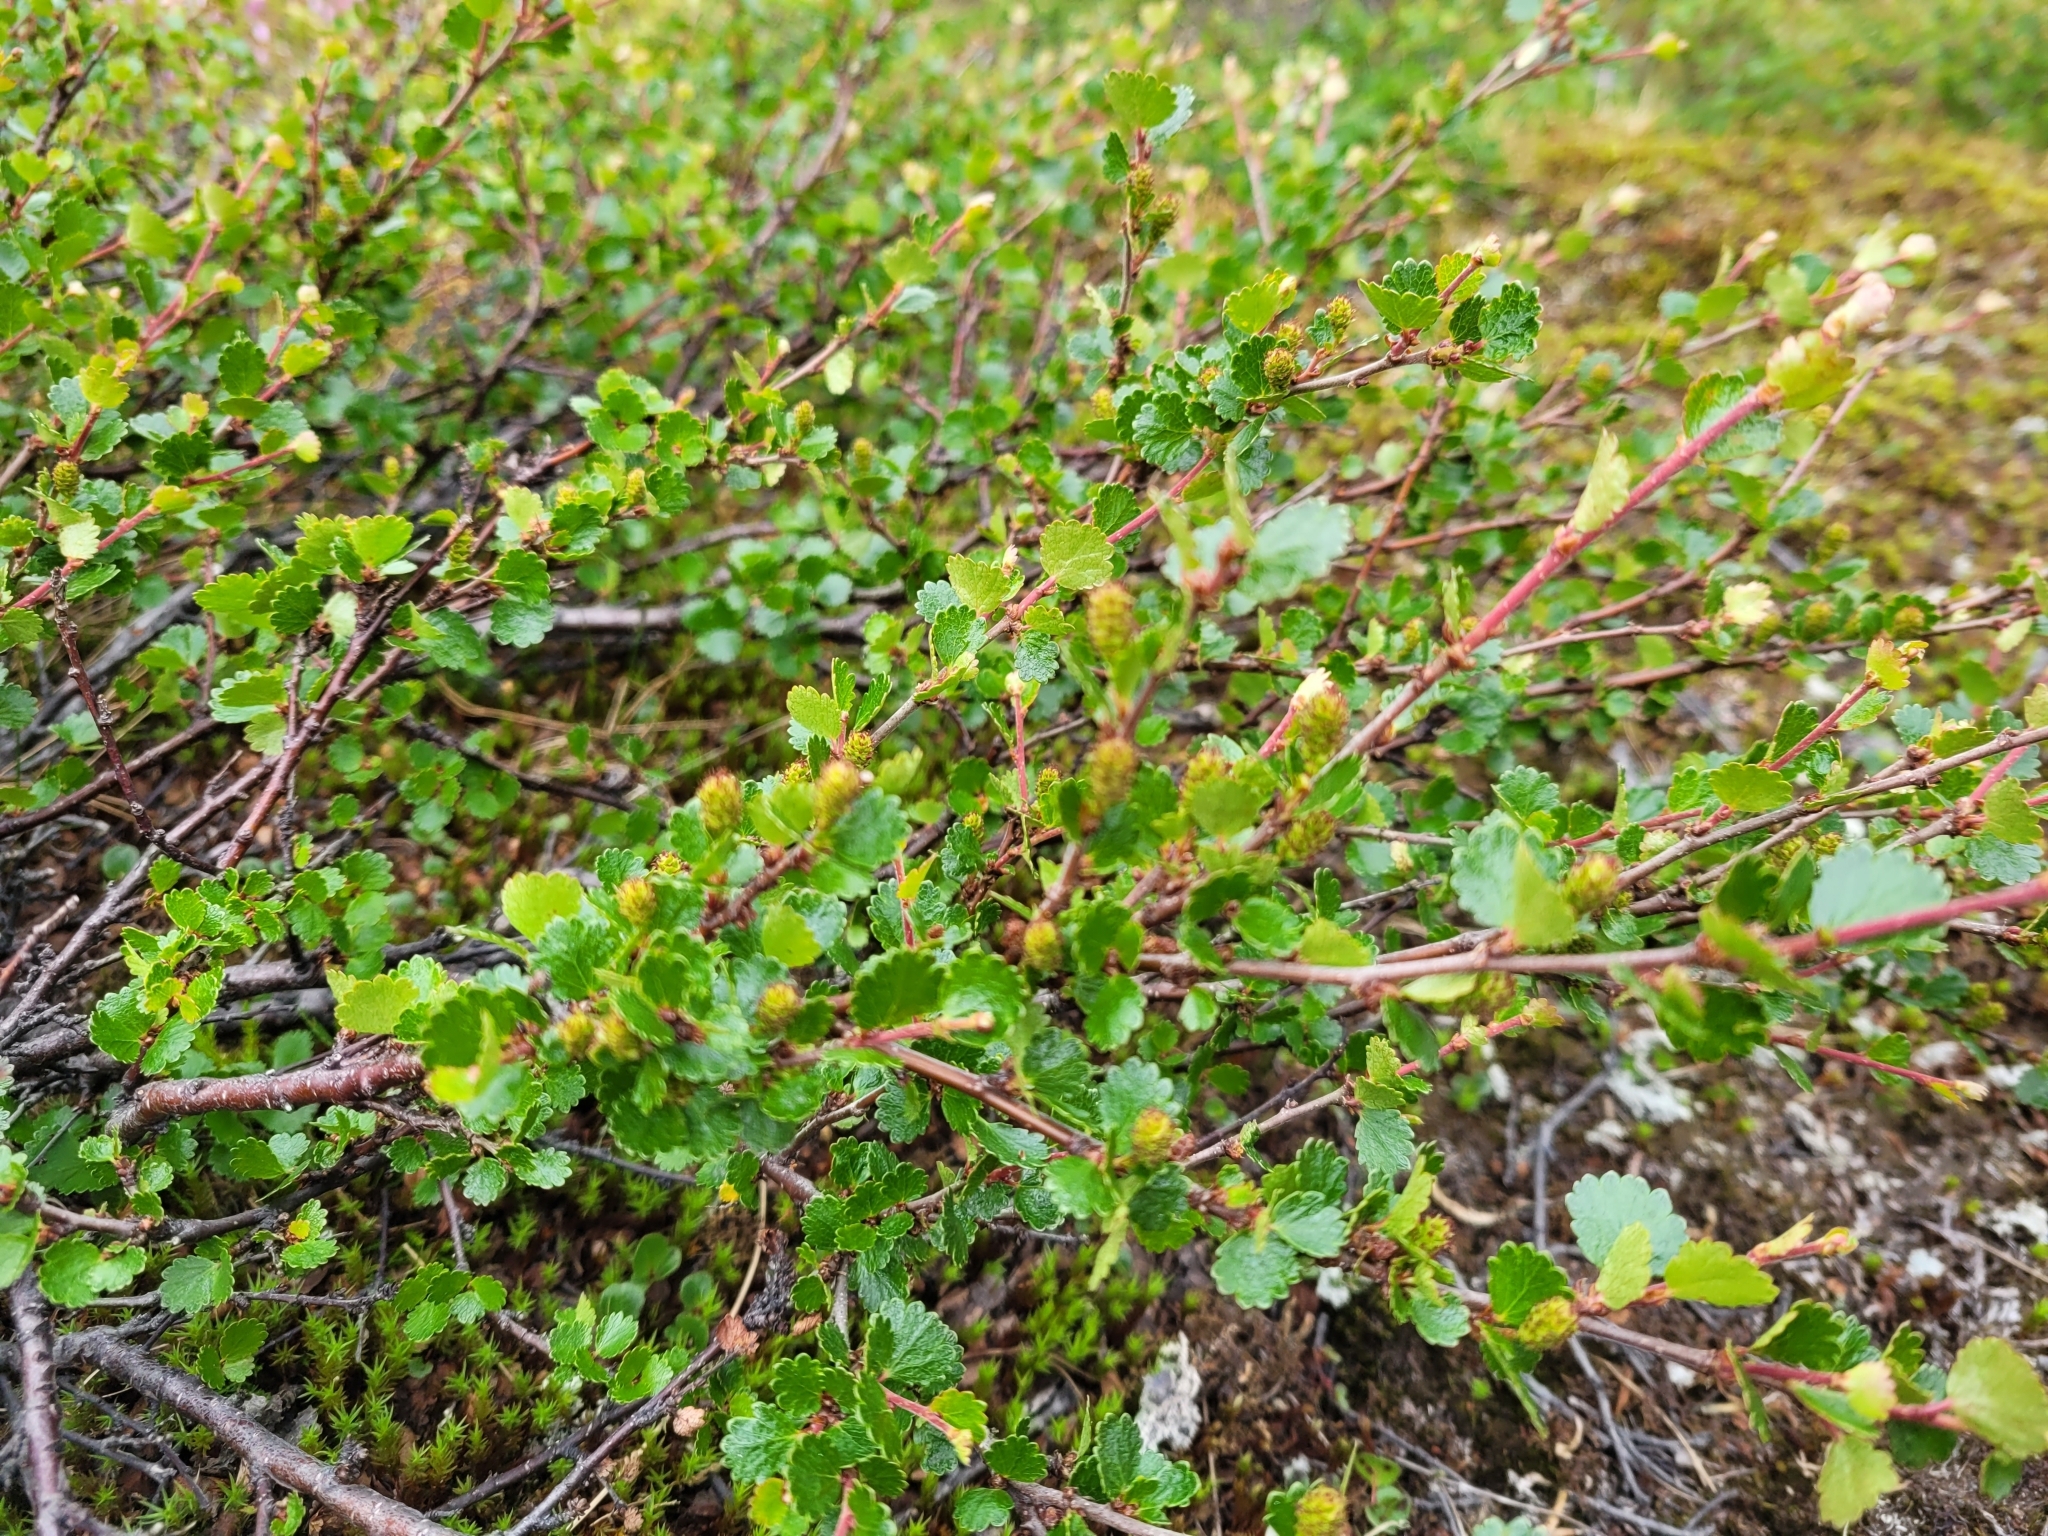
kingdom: Plantae
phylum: Tracheophyta
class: Magnoliopsida
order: Fagales
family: Betulaceae
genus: Betula
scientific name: Betula nana
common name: Arctic dwarf birch
